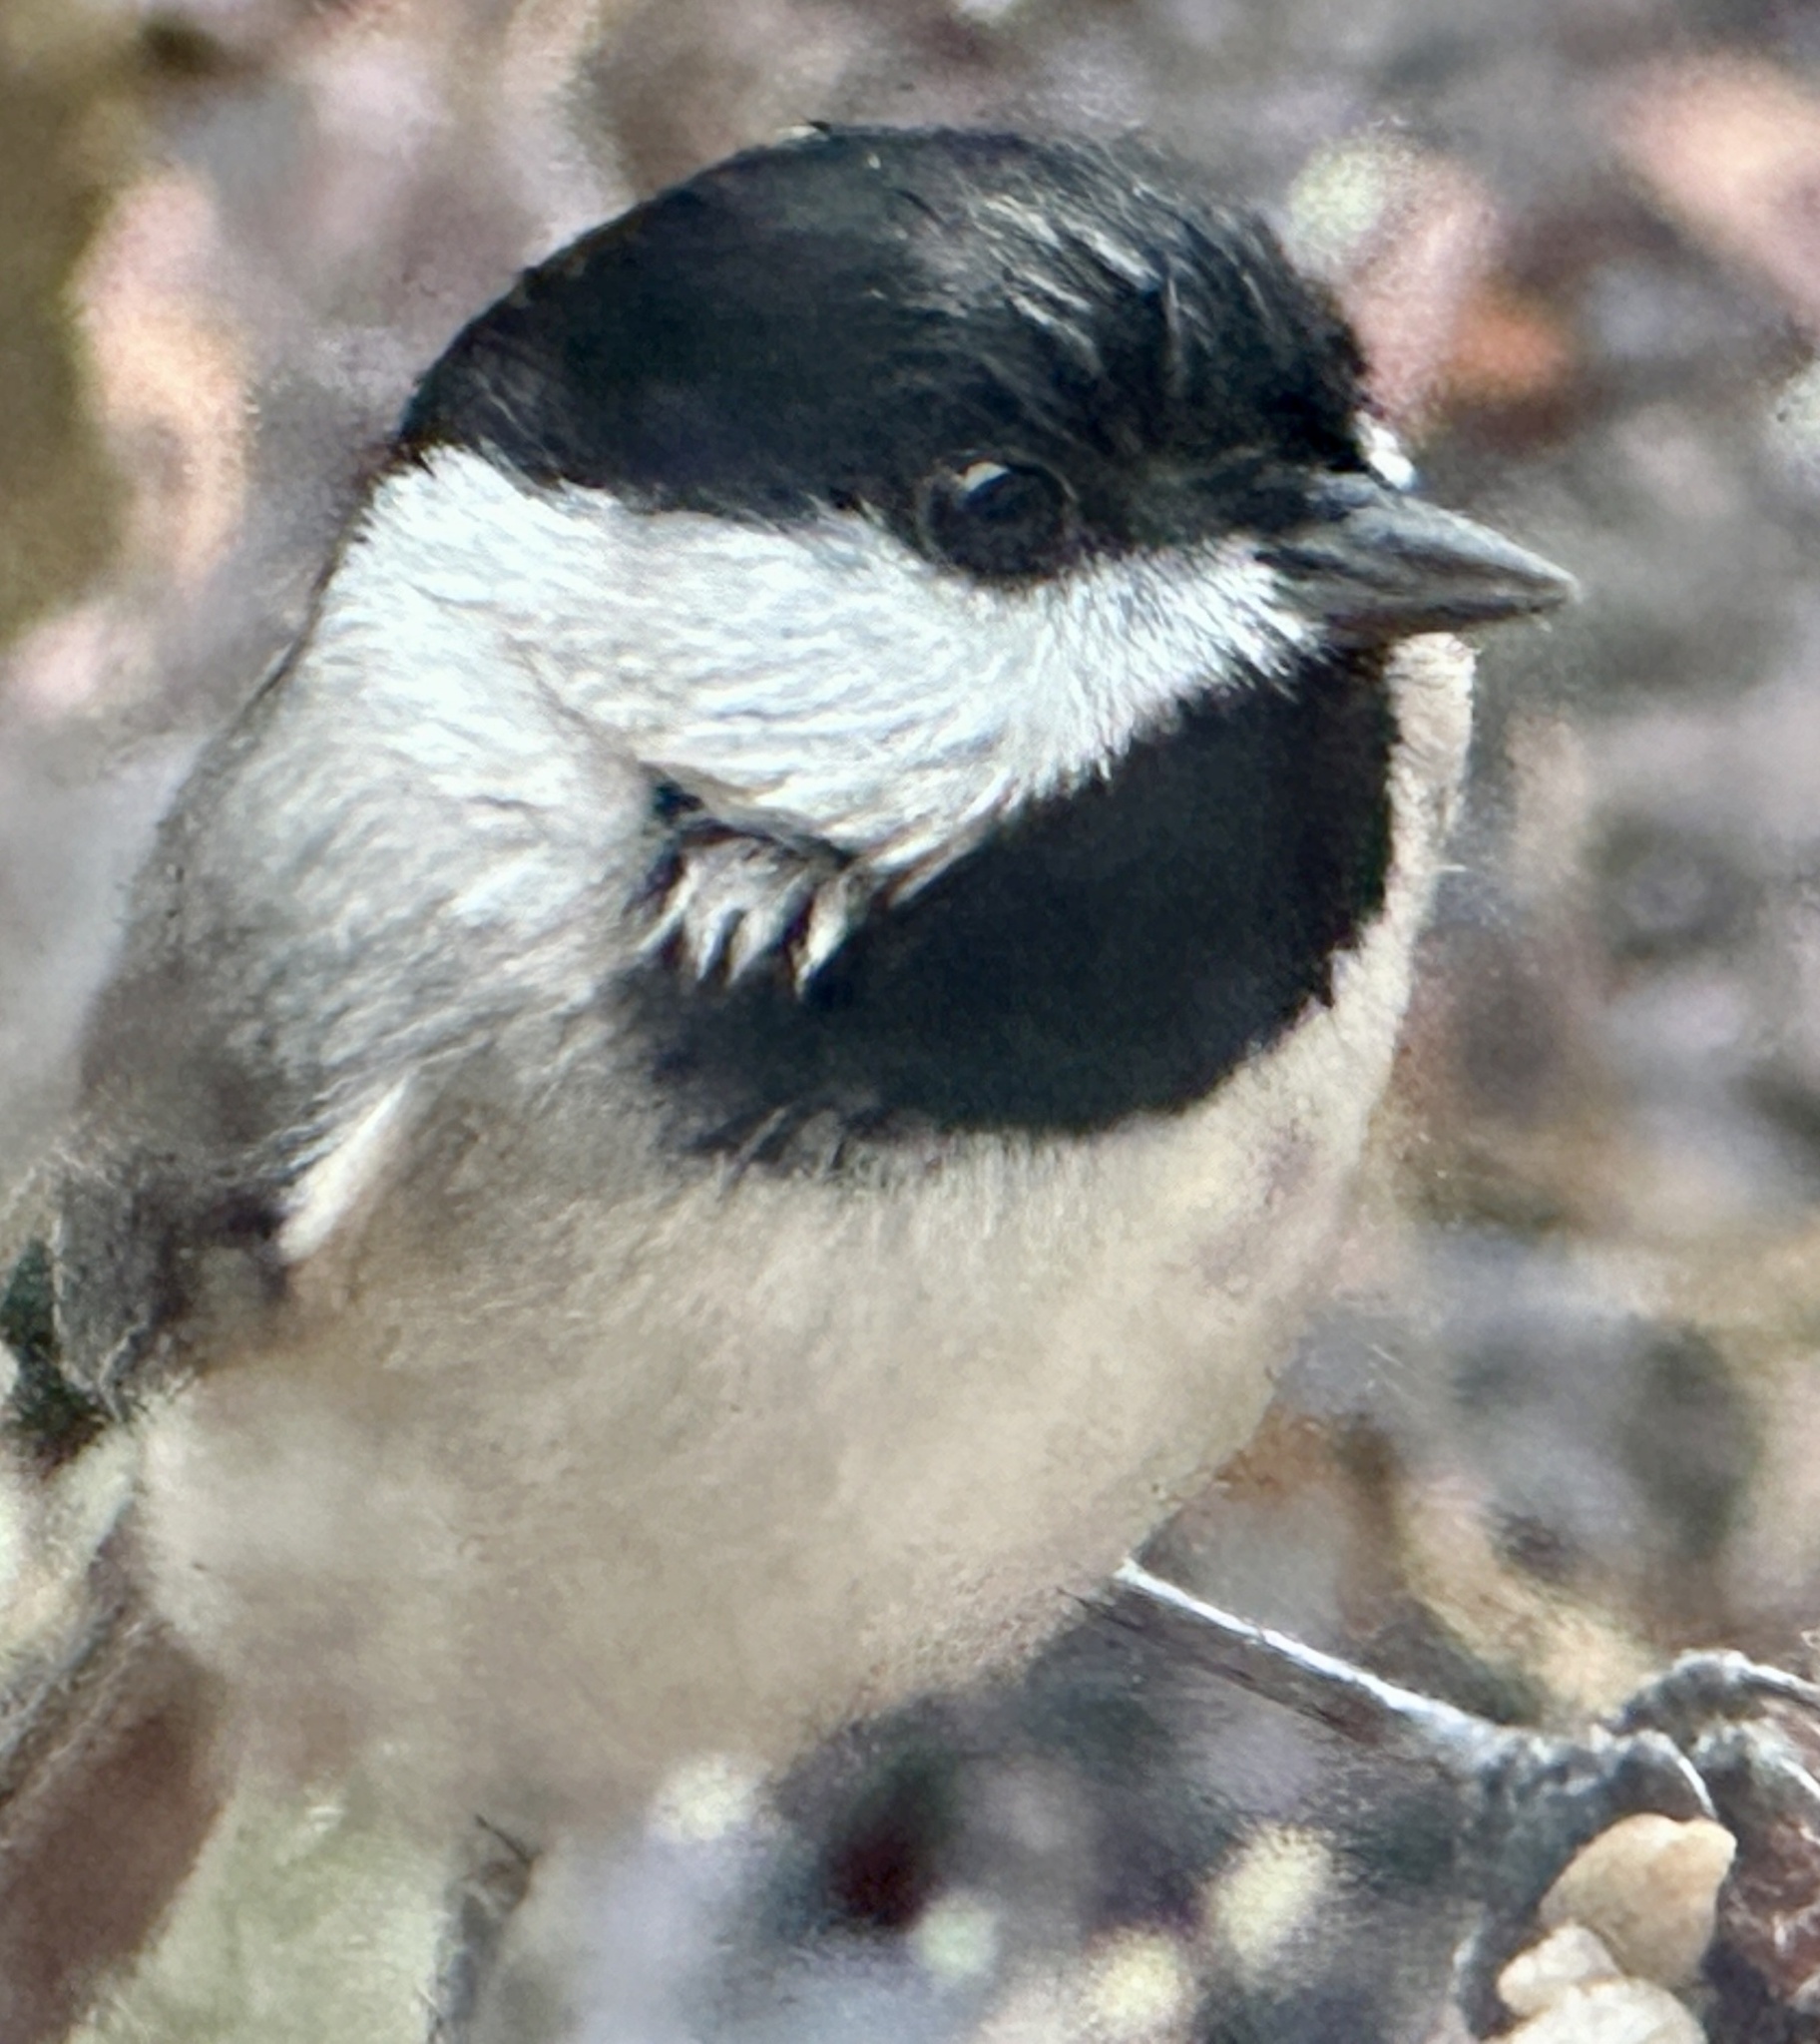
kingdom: Animalia
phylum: Chordata
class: Aves
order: Passeriformes
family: Paridae
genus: Poecile
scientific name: Poecile carolinensis
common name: Carolina chickadee
